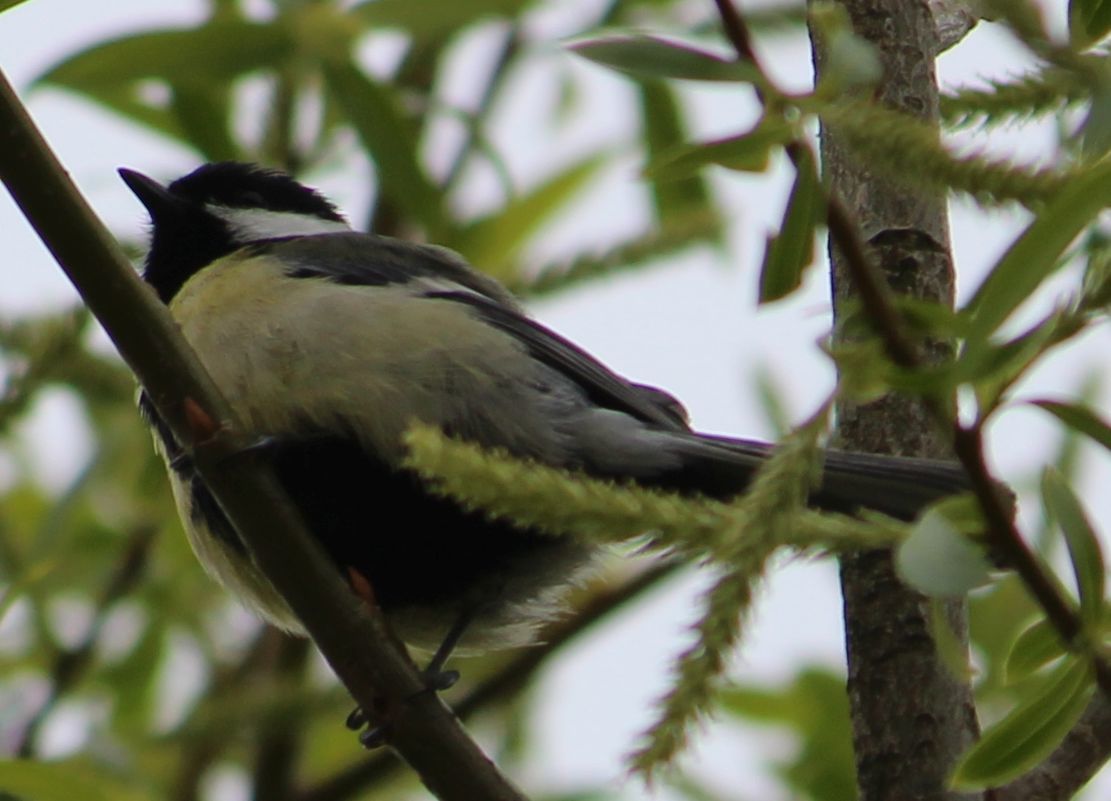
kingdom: Animalia
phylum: Chordata
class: Aves
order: Passeriformes
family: Paridae
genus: Parus
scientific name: Parus major
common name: Great tit
